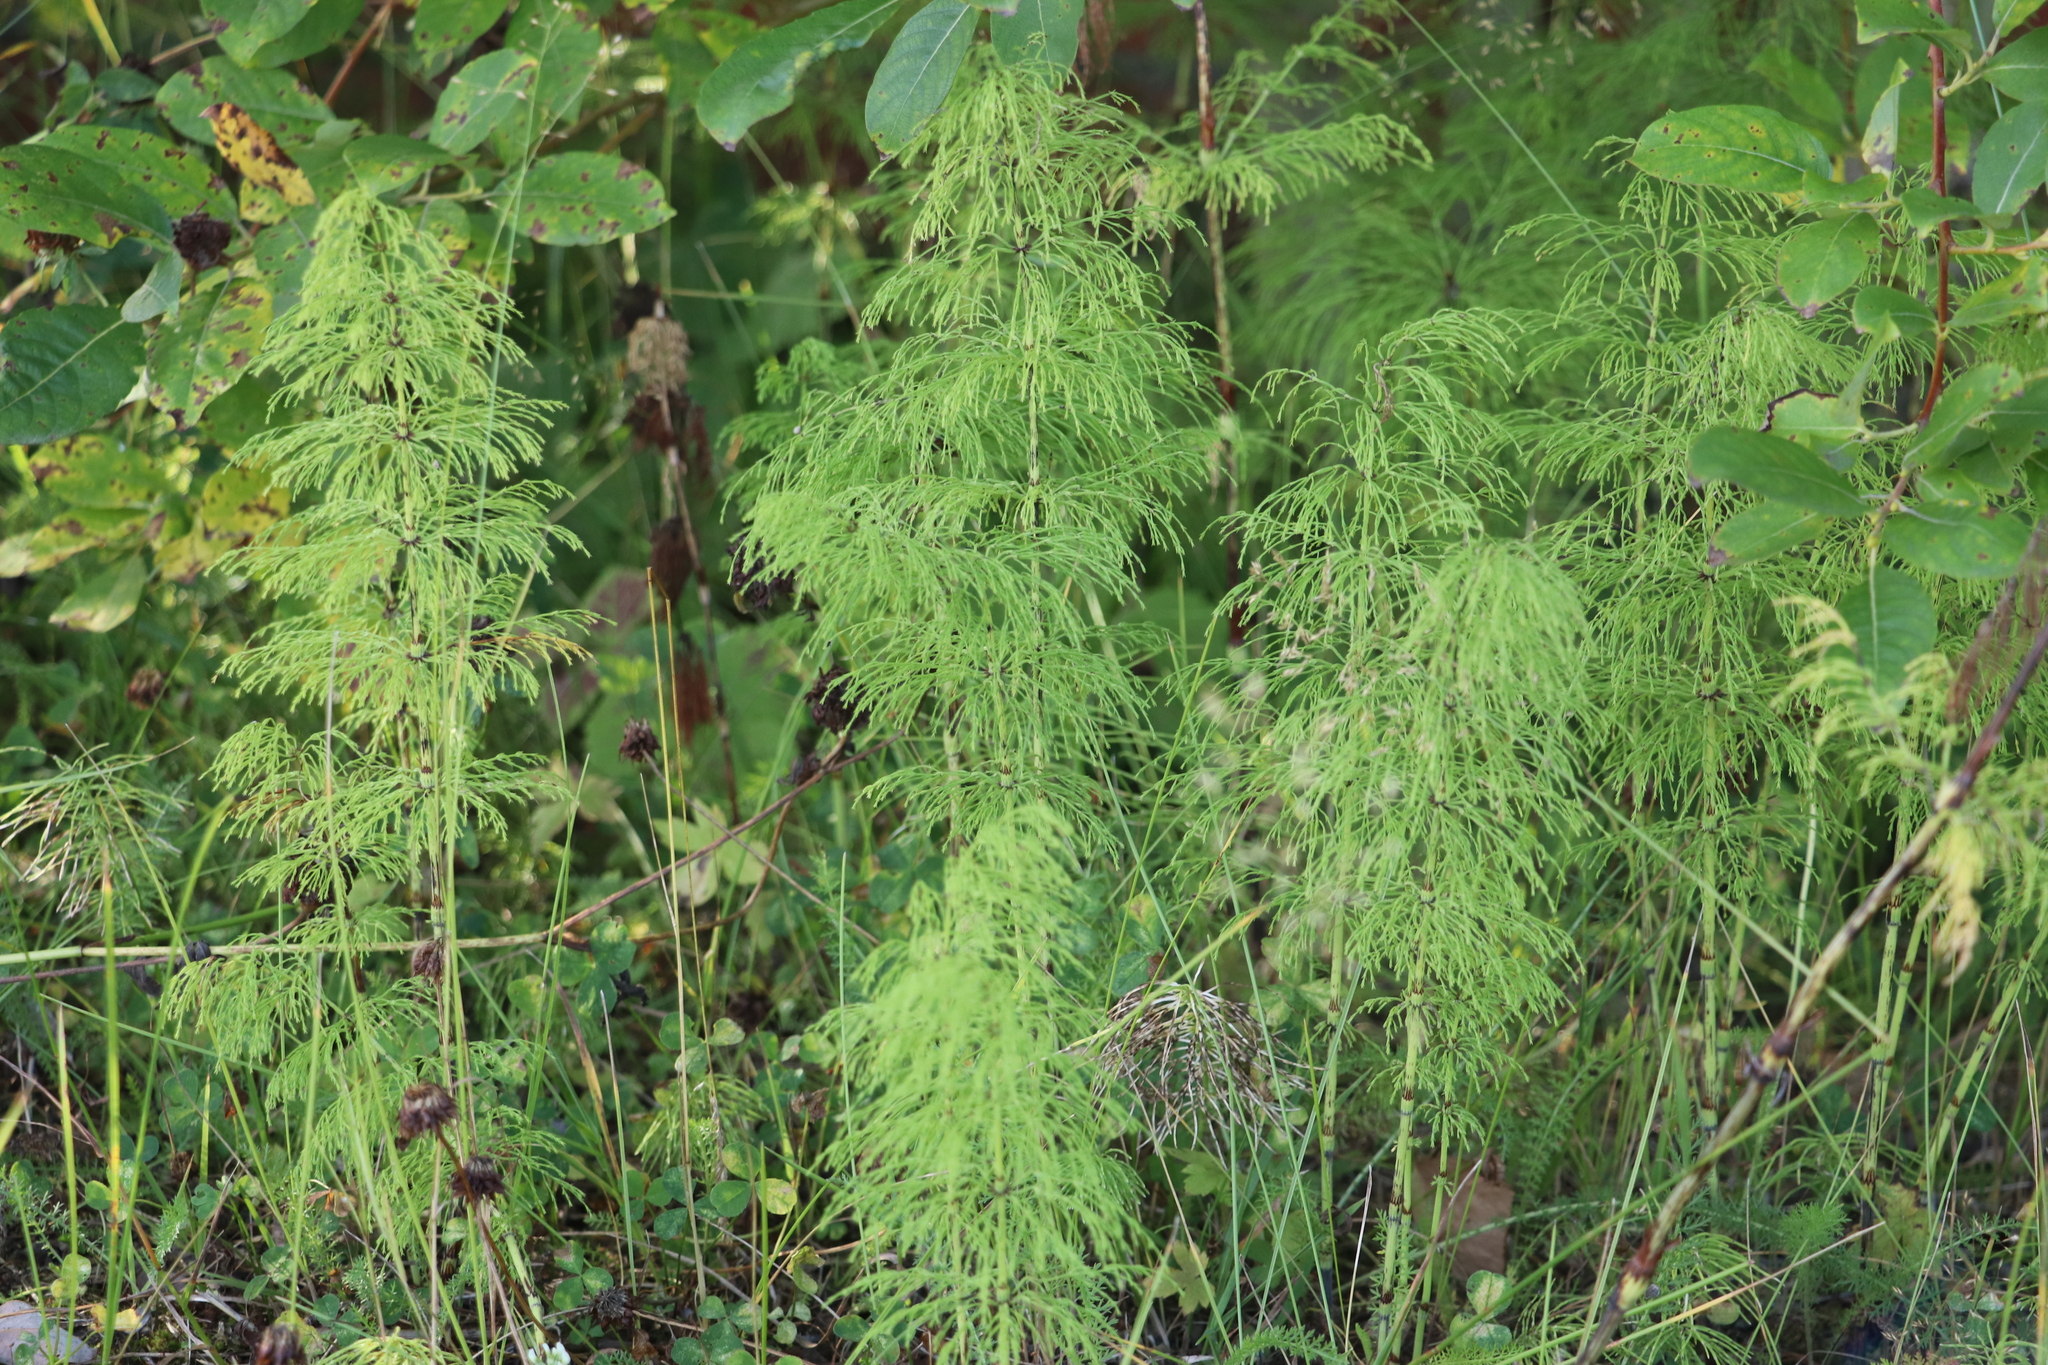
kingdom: Plantae
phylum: Tracheophyta
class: Polypodiopsida
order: Equisetales
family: Equisetaceae
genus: Equisetum
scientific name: Equisetum sylvaticum
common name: Wood horsetail
